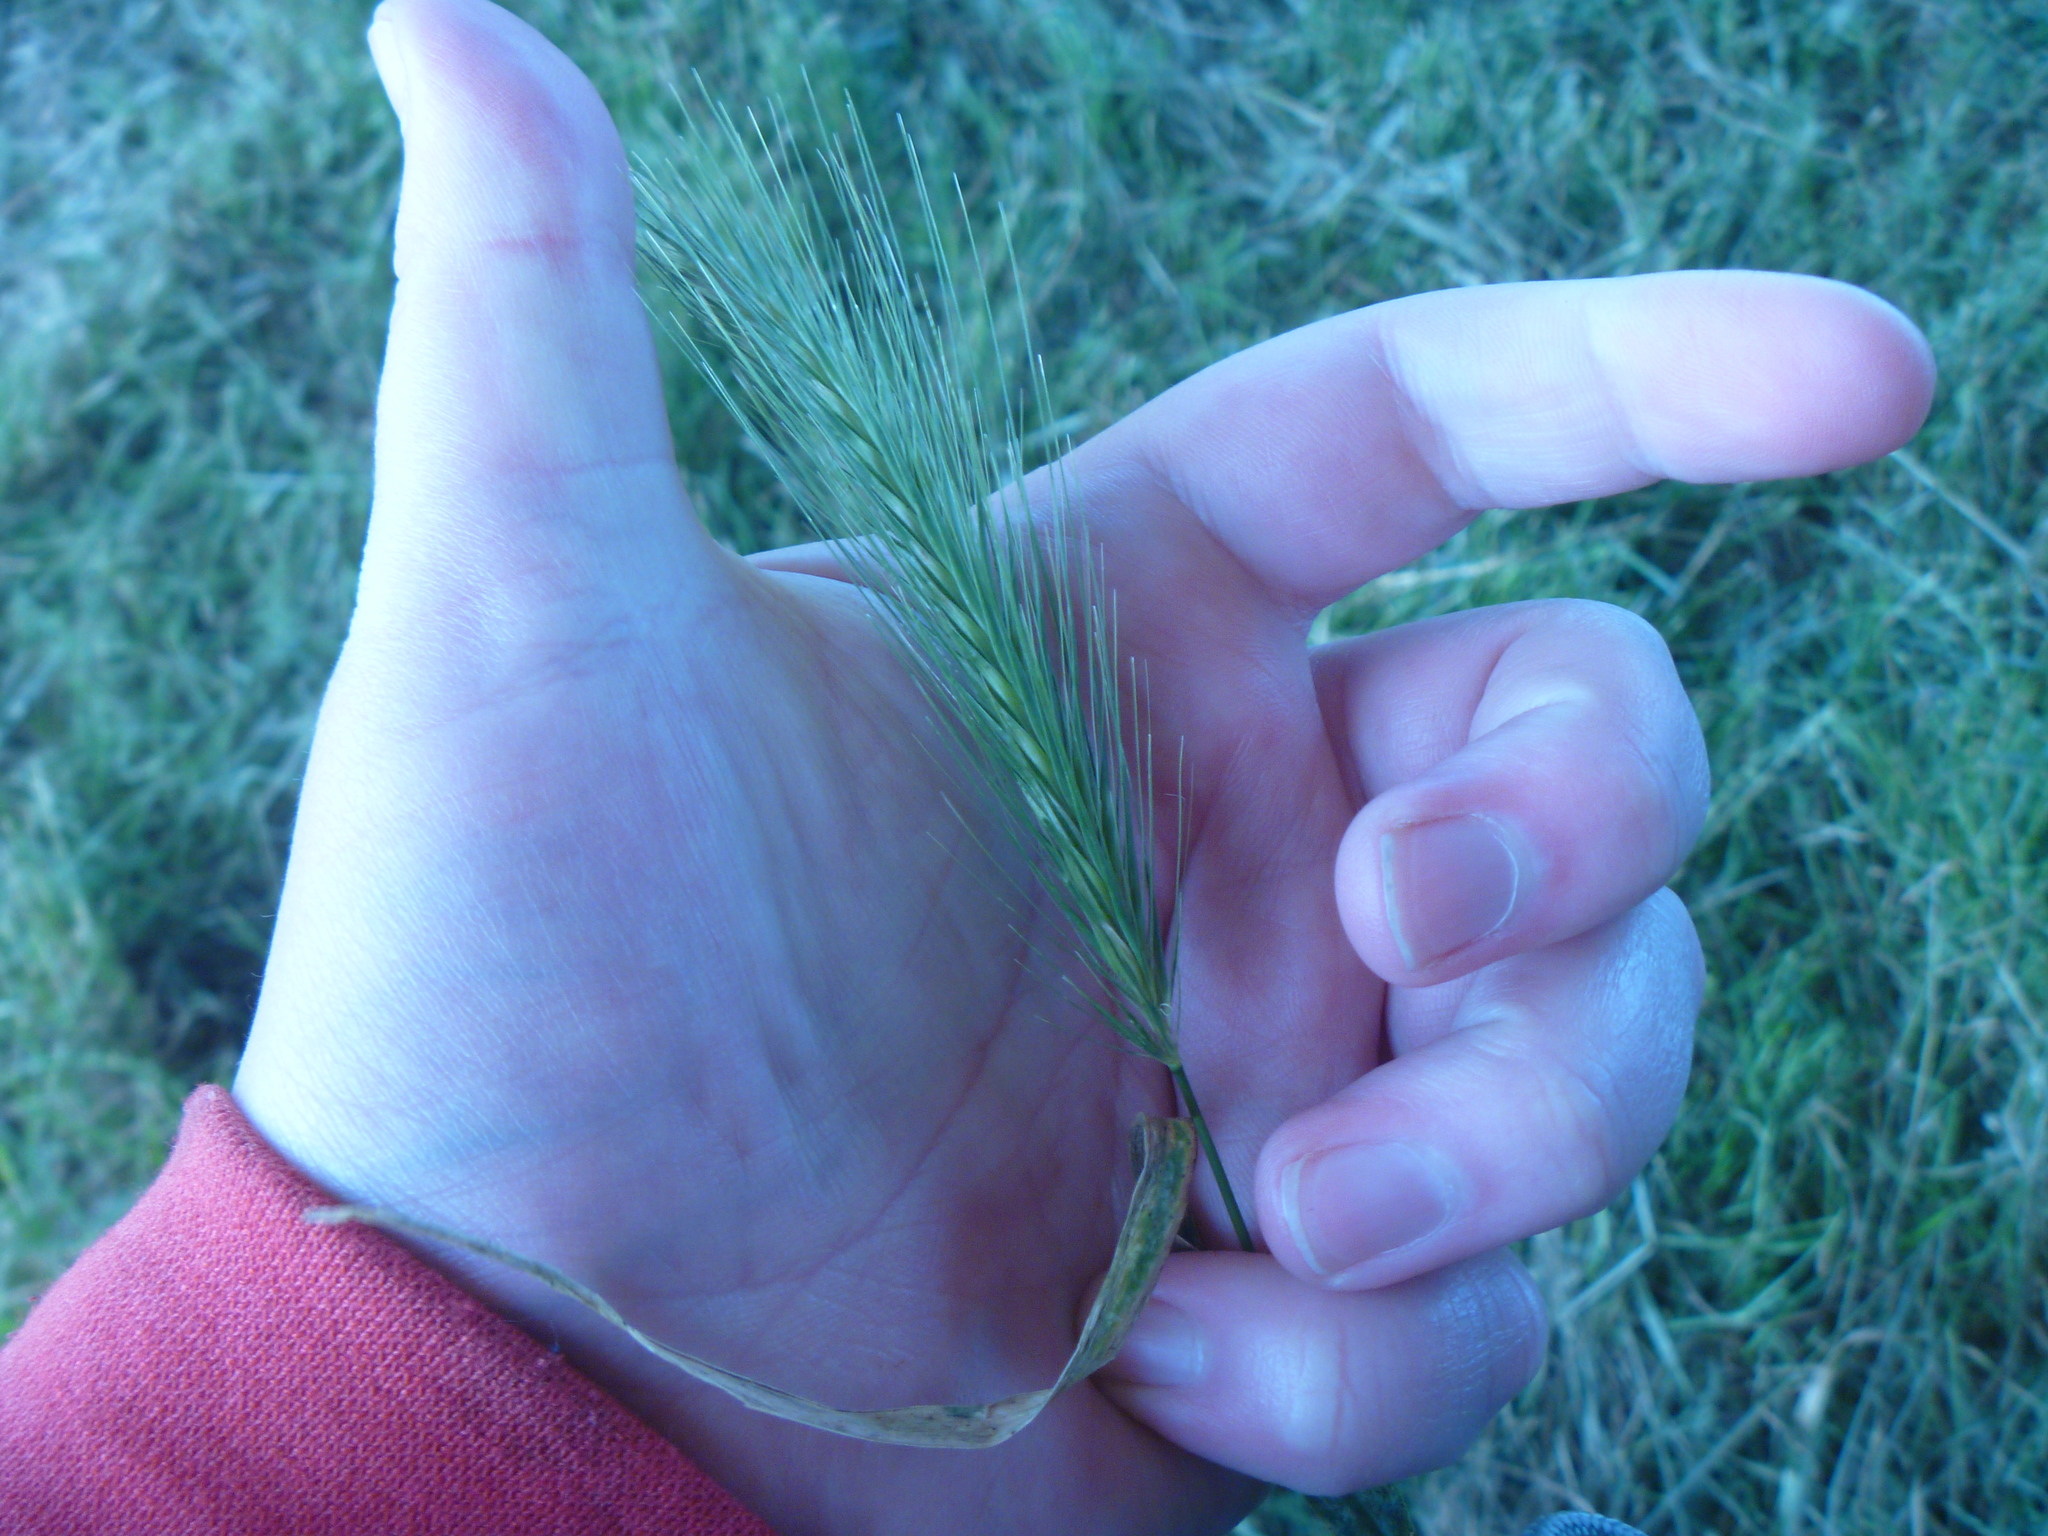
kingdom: Plantae
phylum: Tracheophyta
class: Liliopsida
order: Poales
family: Poaceae
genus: Hordeum
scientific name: Hordeum murinum
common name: Wall barley
